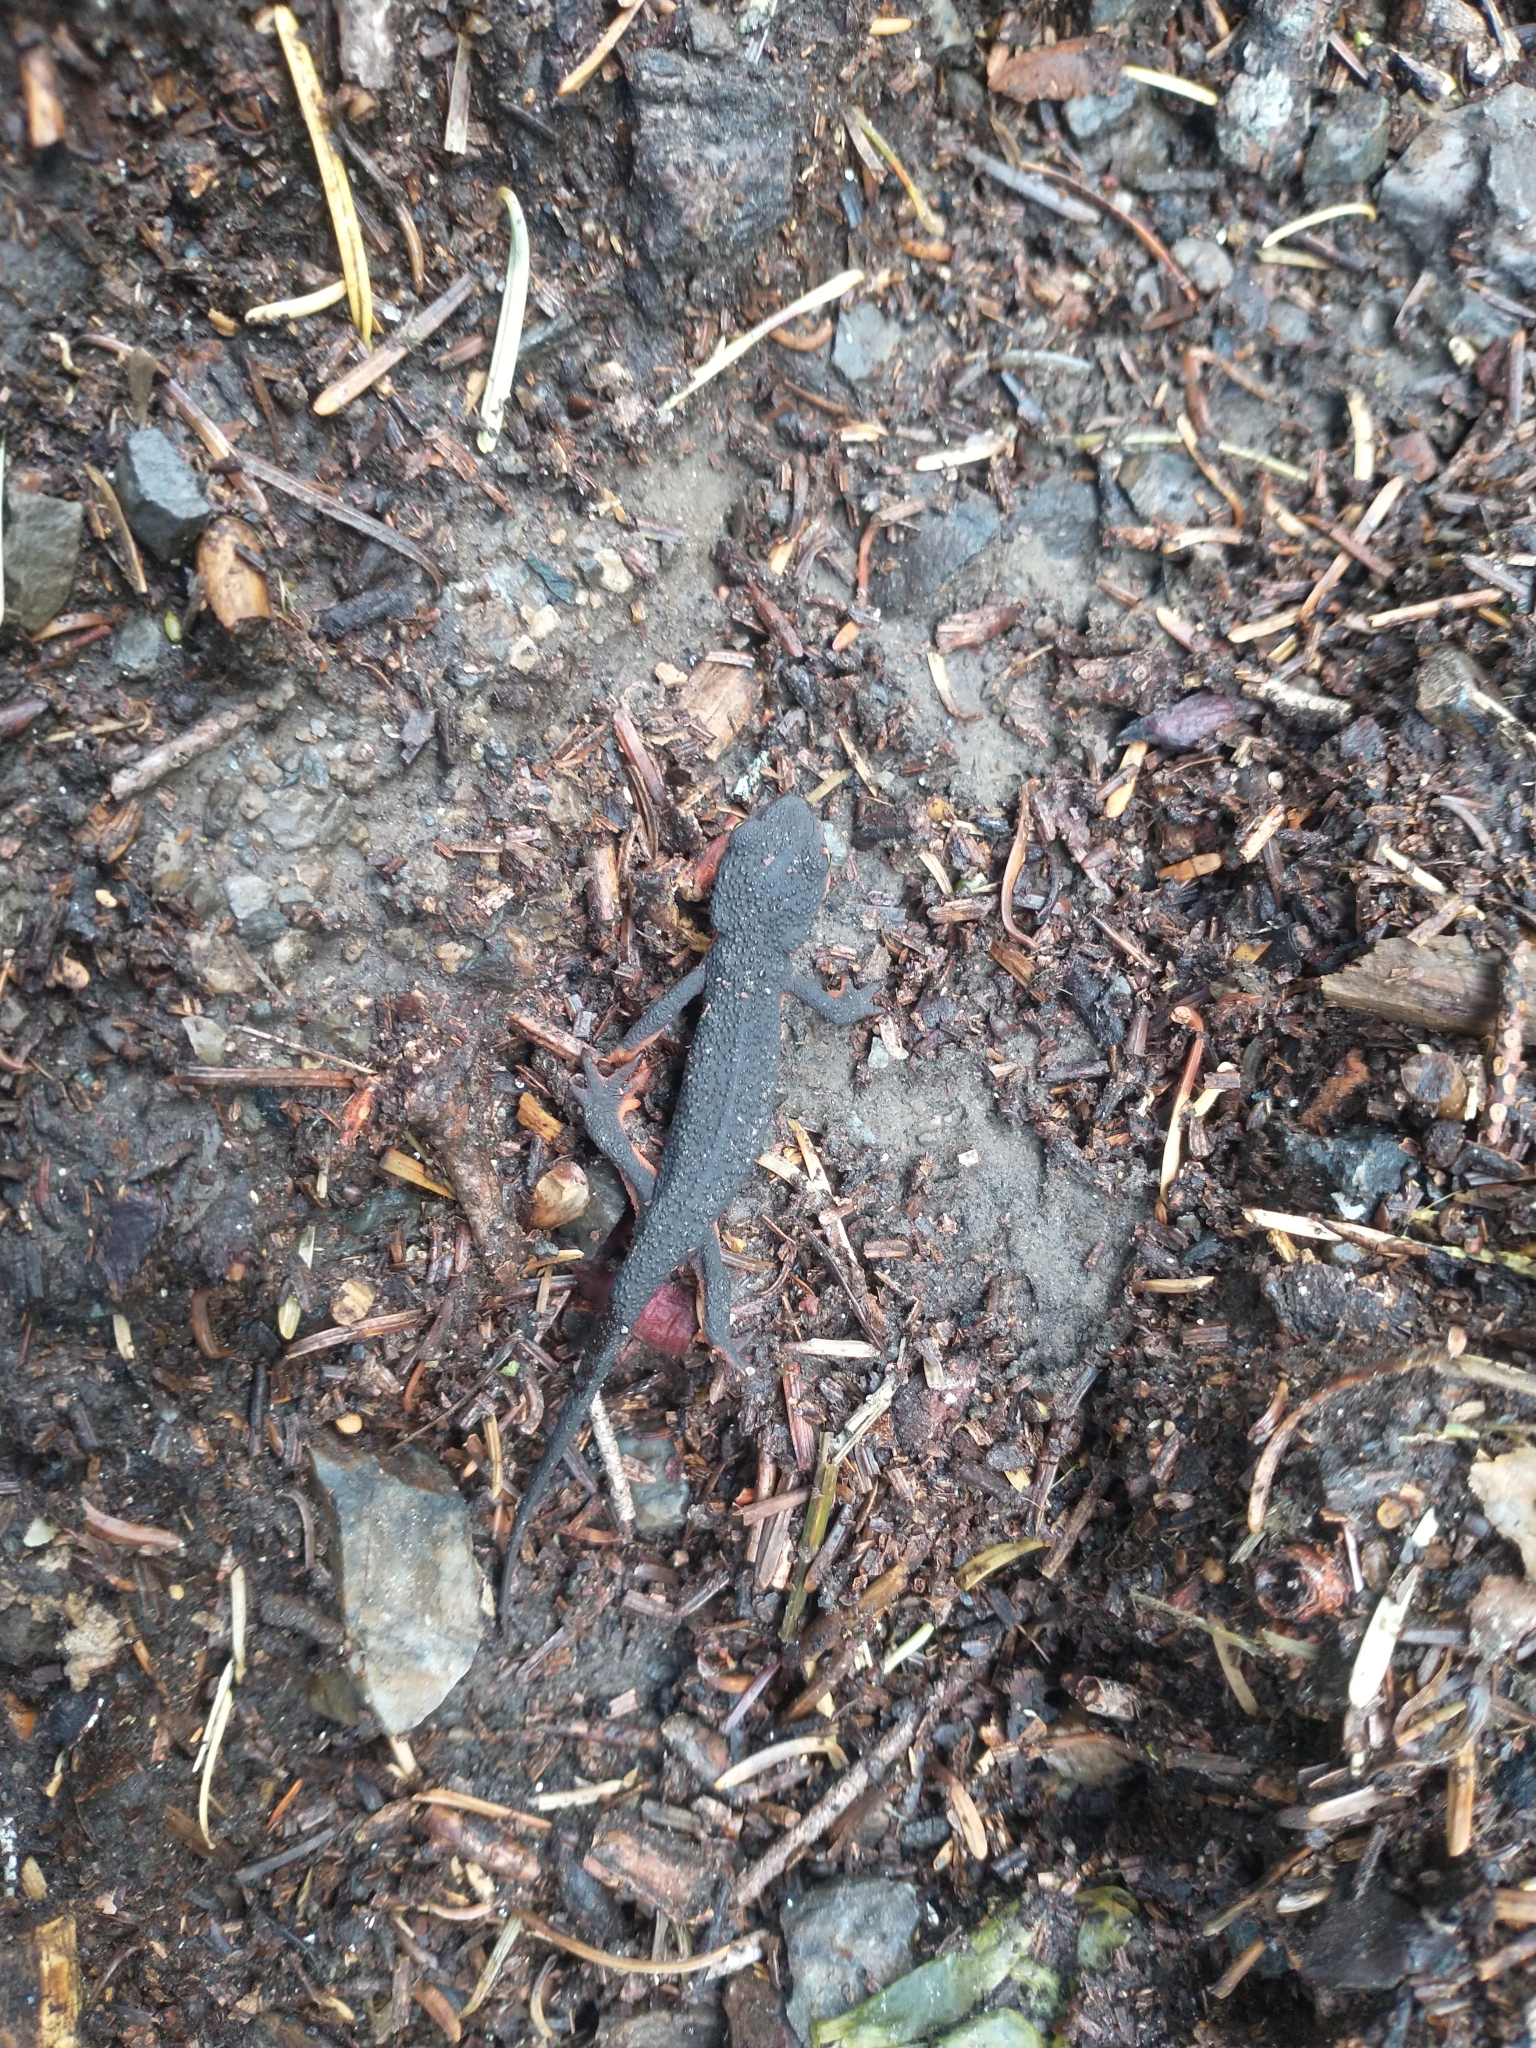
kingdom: Animalia
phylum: Chordata
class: Amphibia
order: Caudata
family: Salamandridae
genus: Taricha
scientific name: Taricha granulosa
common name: Roughskin newt
